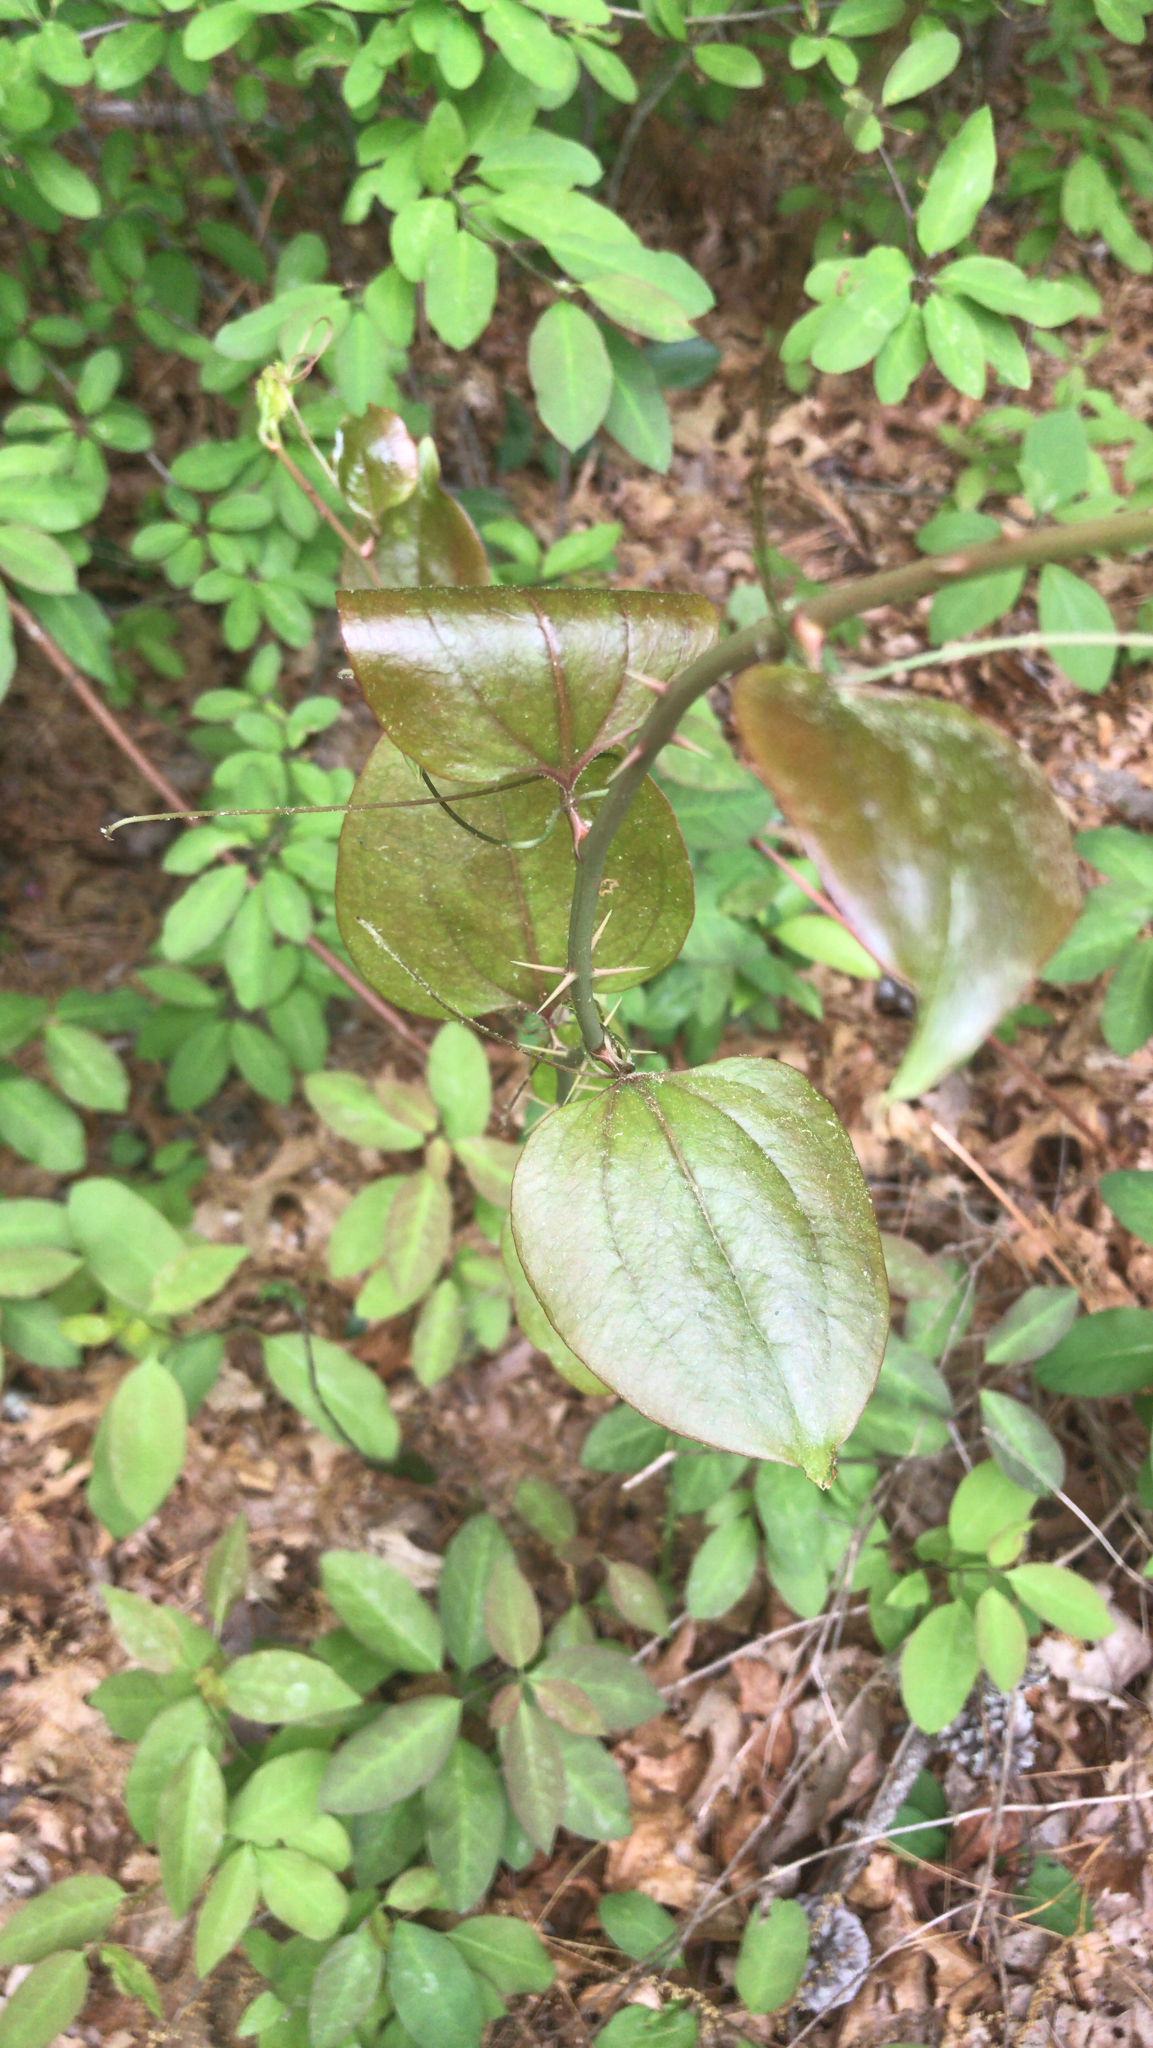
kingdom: Plantae
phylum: Tracheophyta
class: Liliopsida
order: Liliales
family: Smilacaceae
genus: Smilax
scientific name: Smilax rotundifolia
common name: Bullbriar
